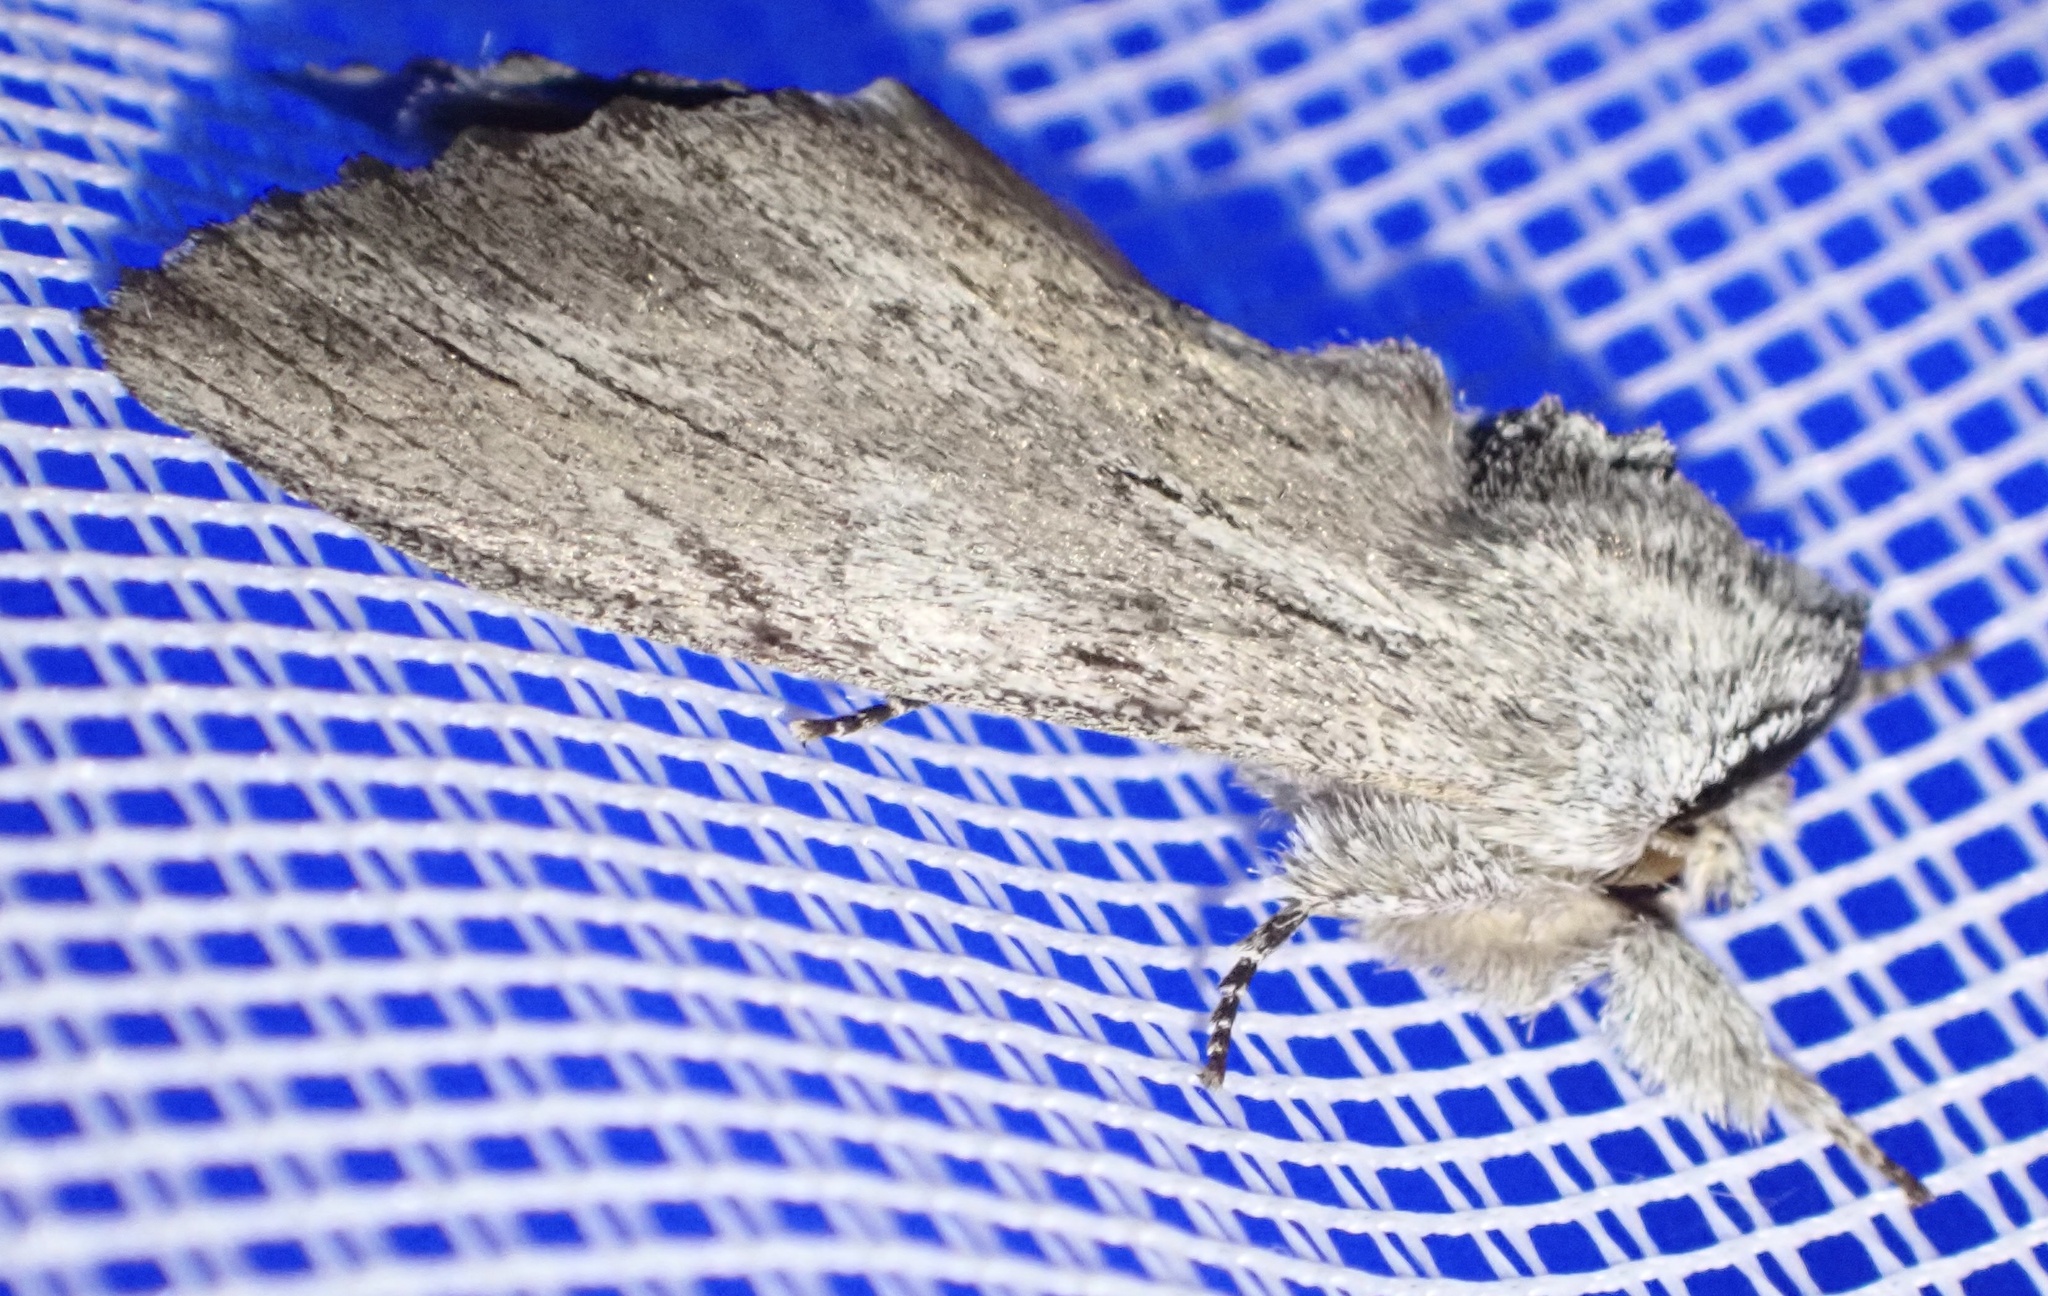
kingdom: Animalia
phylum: Arthropoda
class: Insecta
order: Lepidoptera
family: Notodontidae
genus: Destolmia
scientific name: Destolmia lineata
